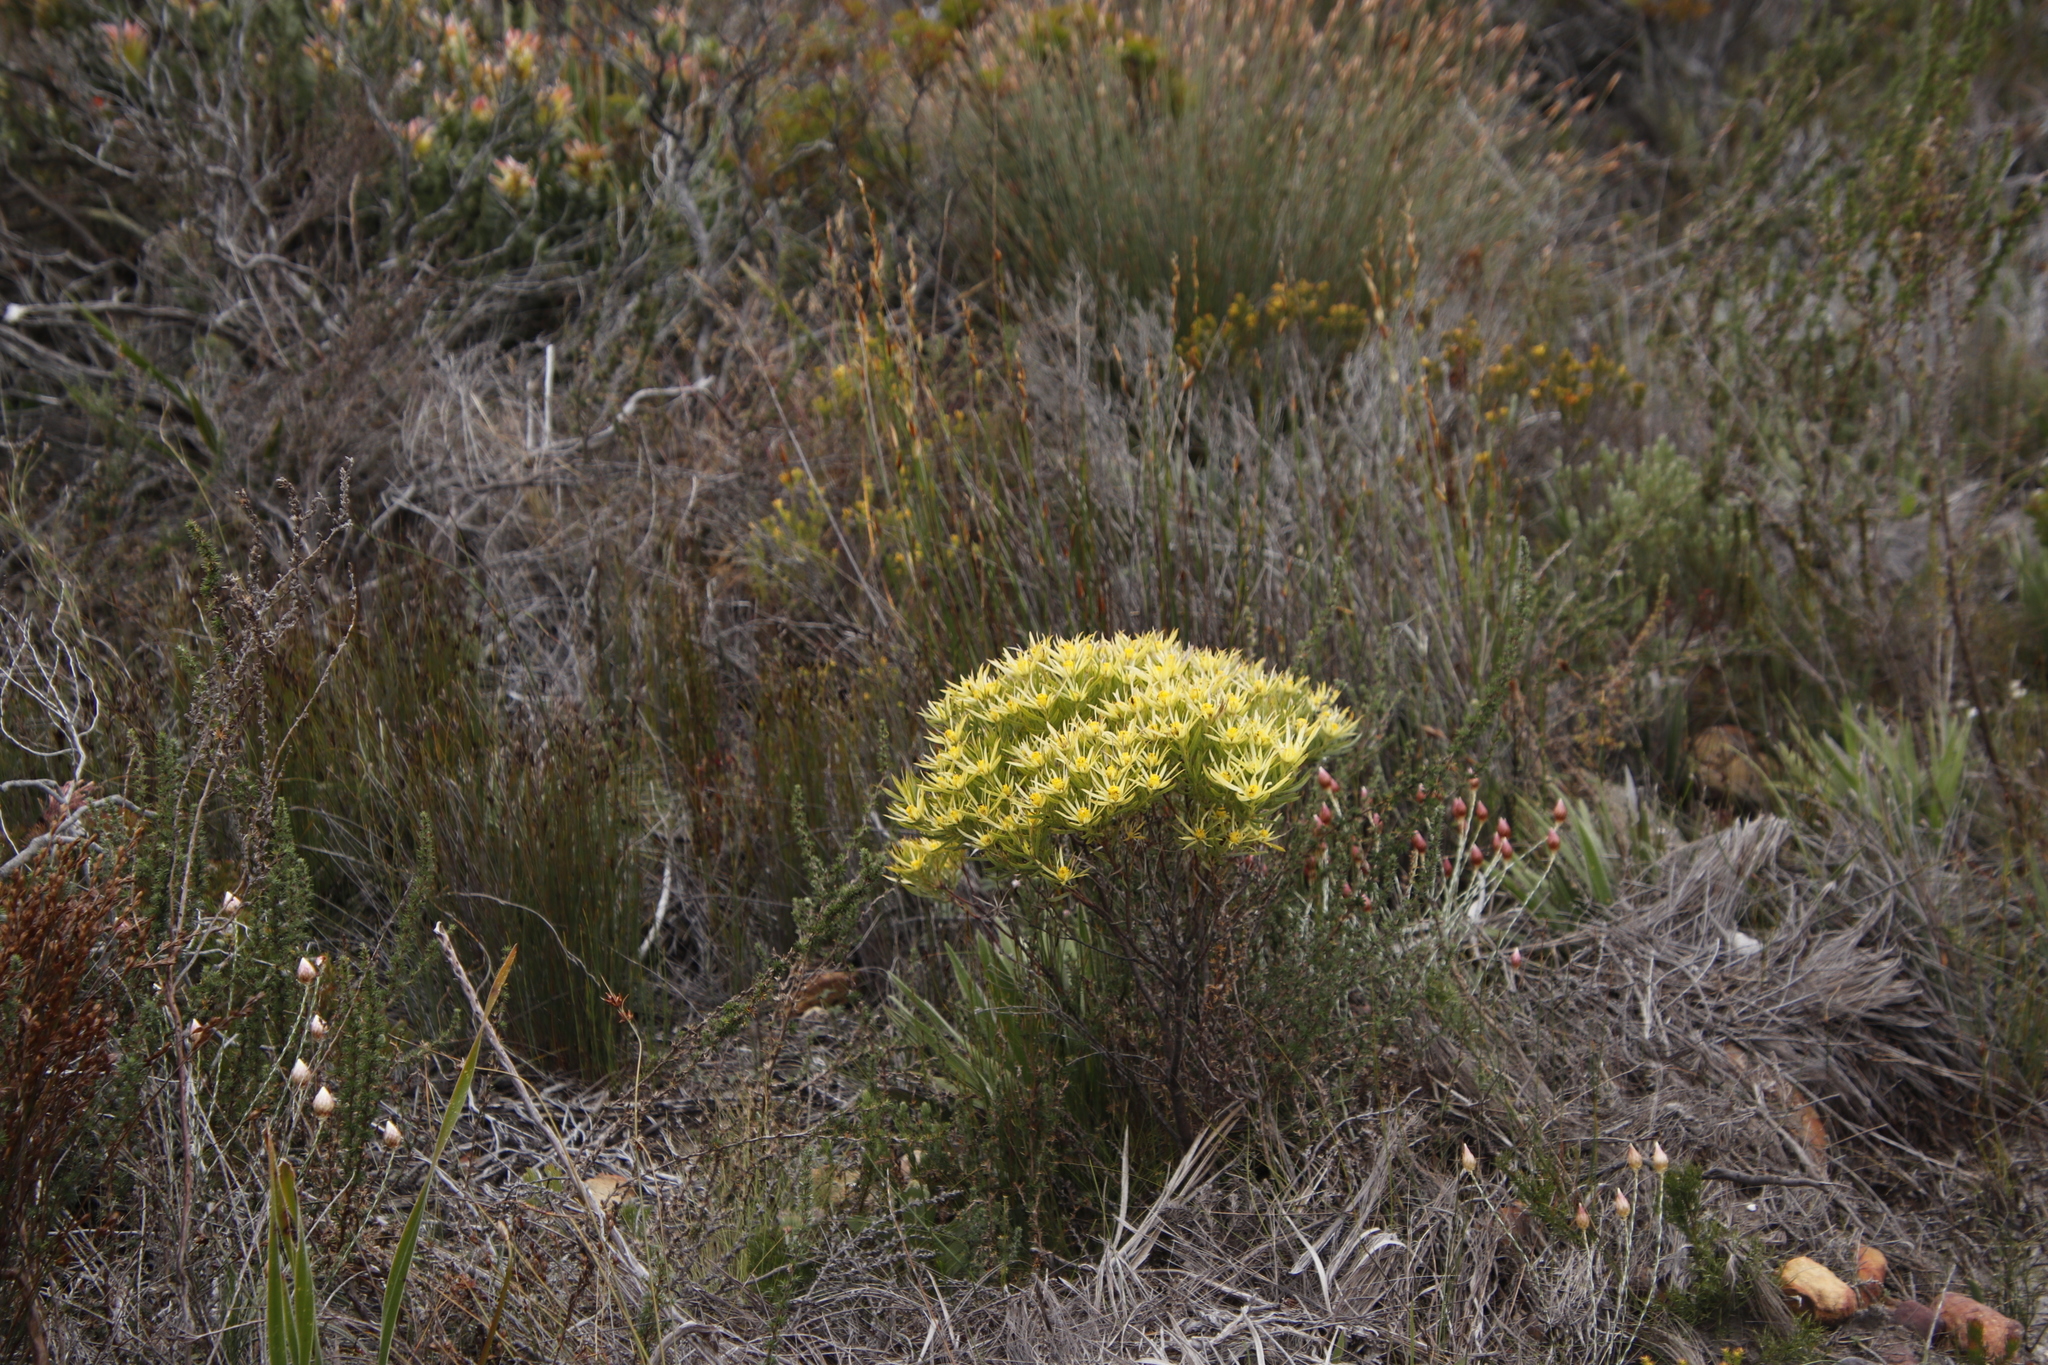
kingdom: Plantae
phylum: Tracheophyta
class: Magnoliopsida
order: Proteales
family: Proteaceae
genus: Leucadendron
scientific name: Leucadendron xanthoconus
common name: Sickle-leaf conebush
